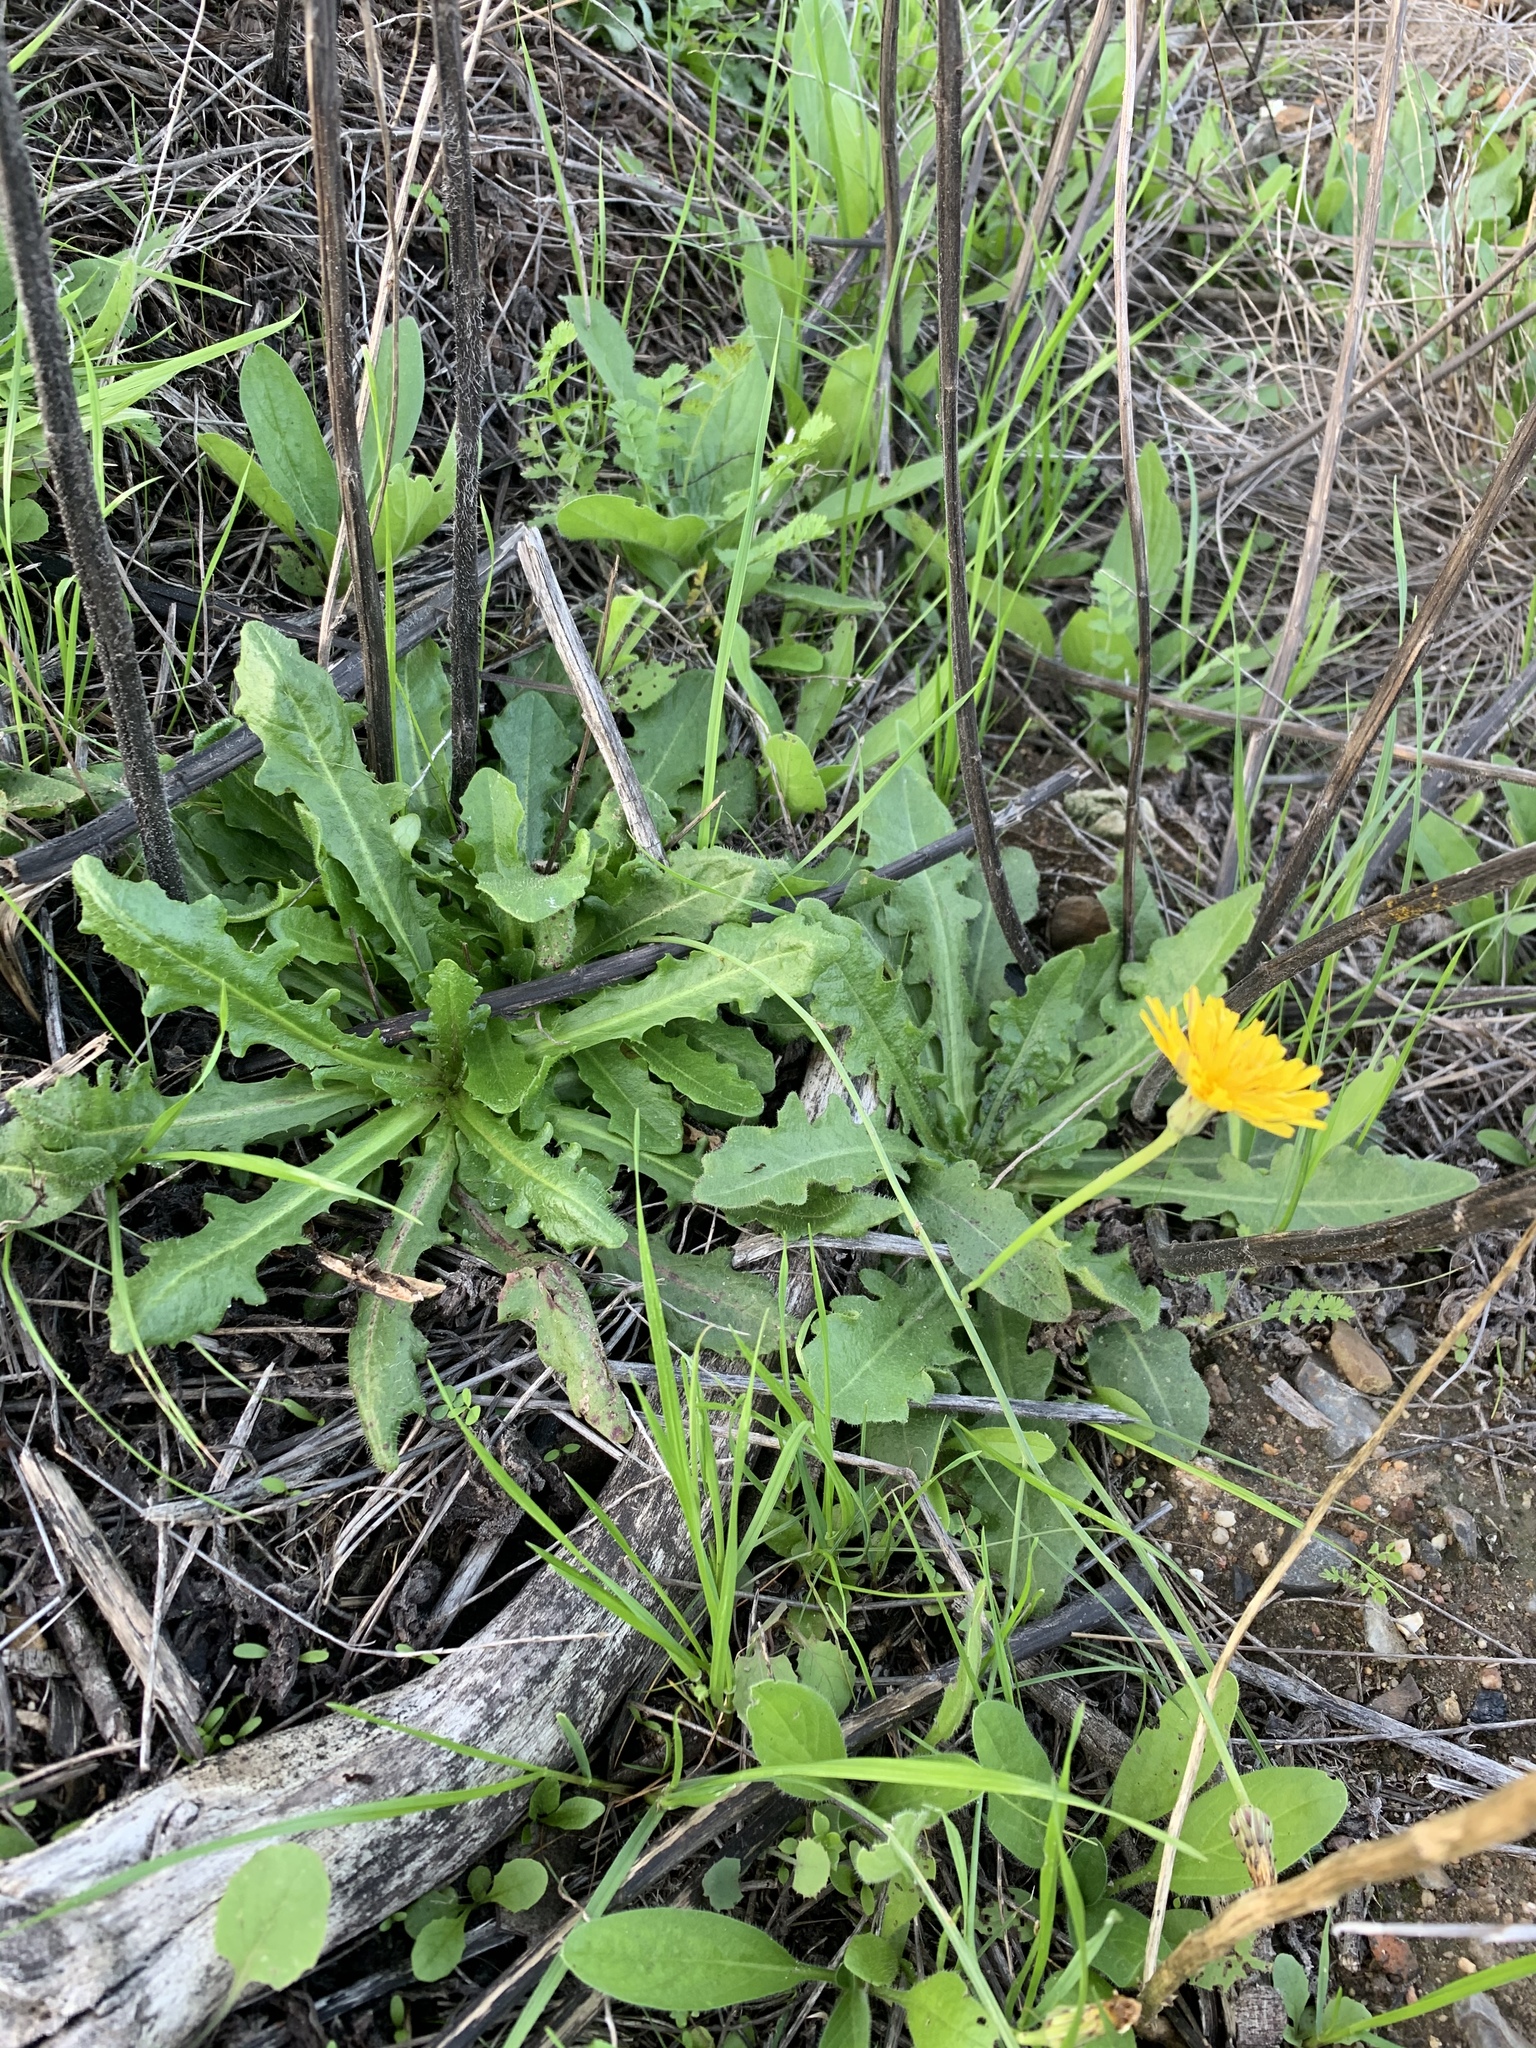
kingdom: Plantae
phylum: Tracheophyta
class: Magnoliopsida
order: Asterales
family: Asteraceae
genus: Hypochaeris
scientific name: Hypochaeris radicata
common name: Flatweed
